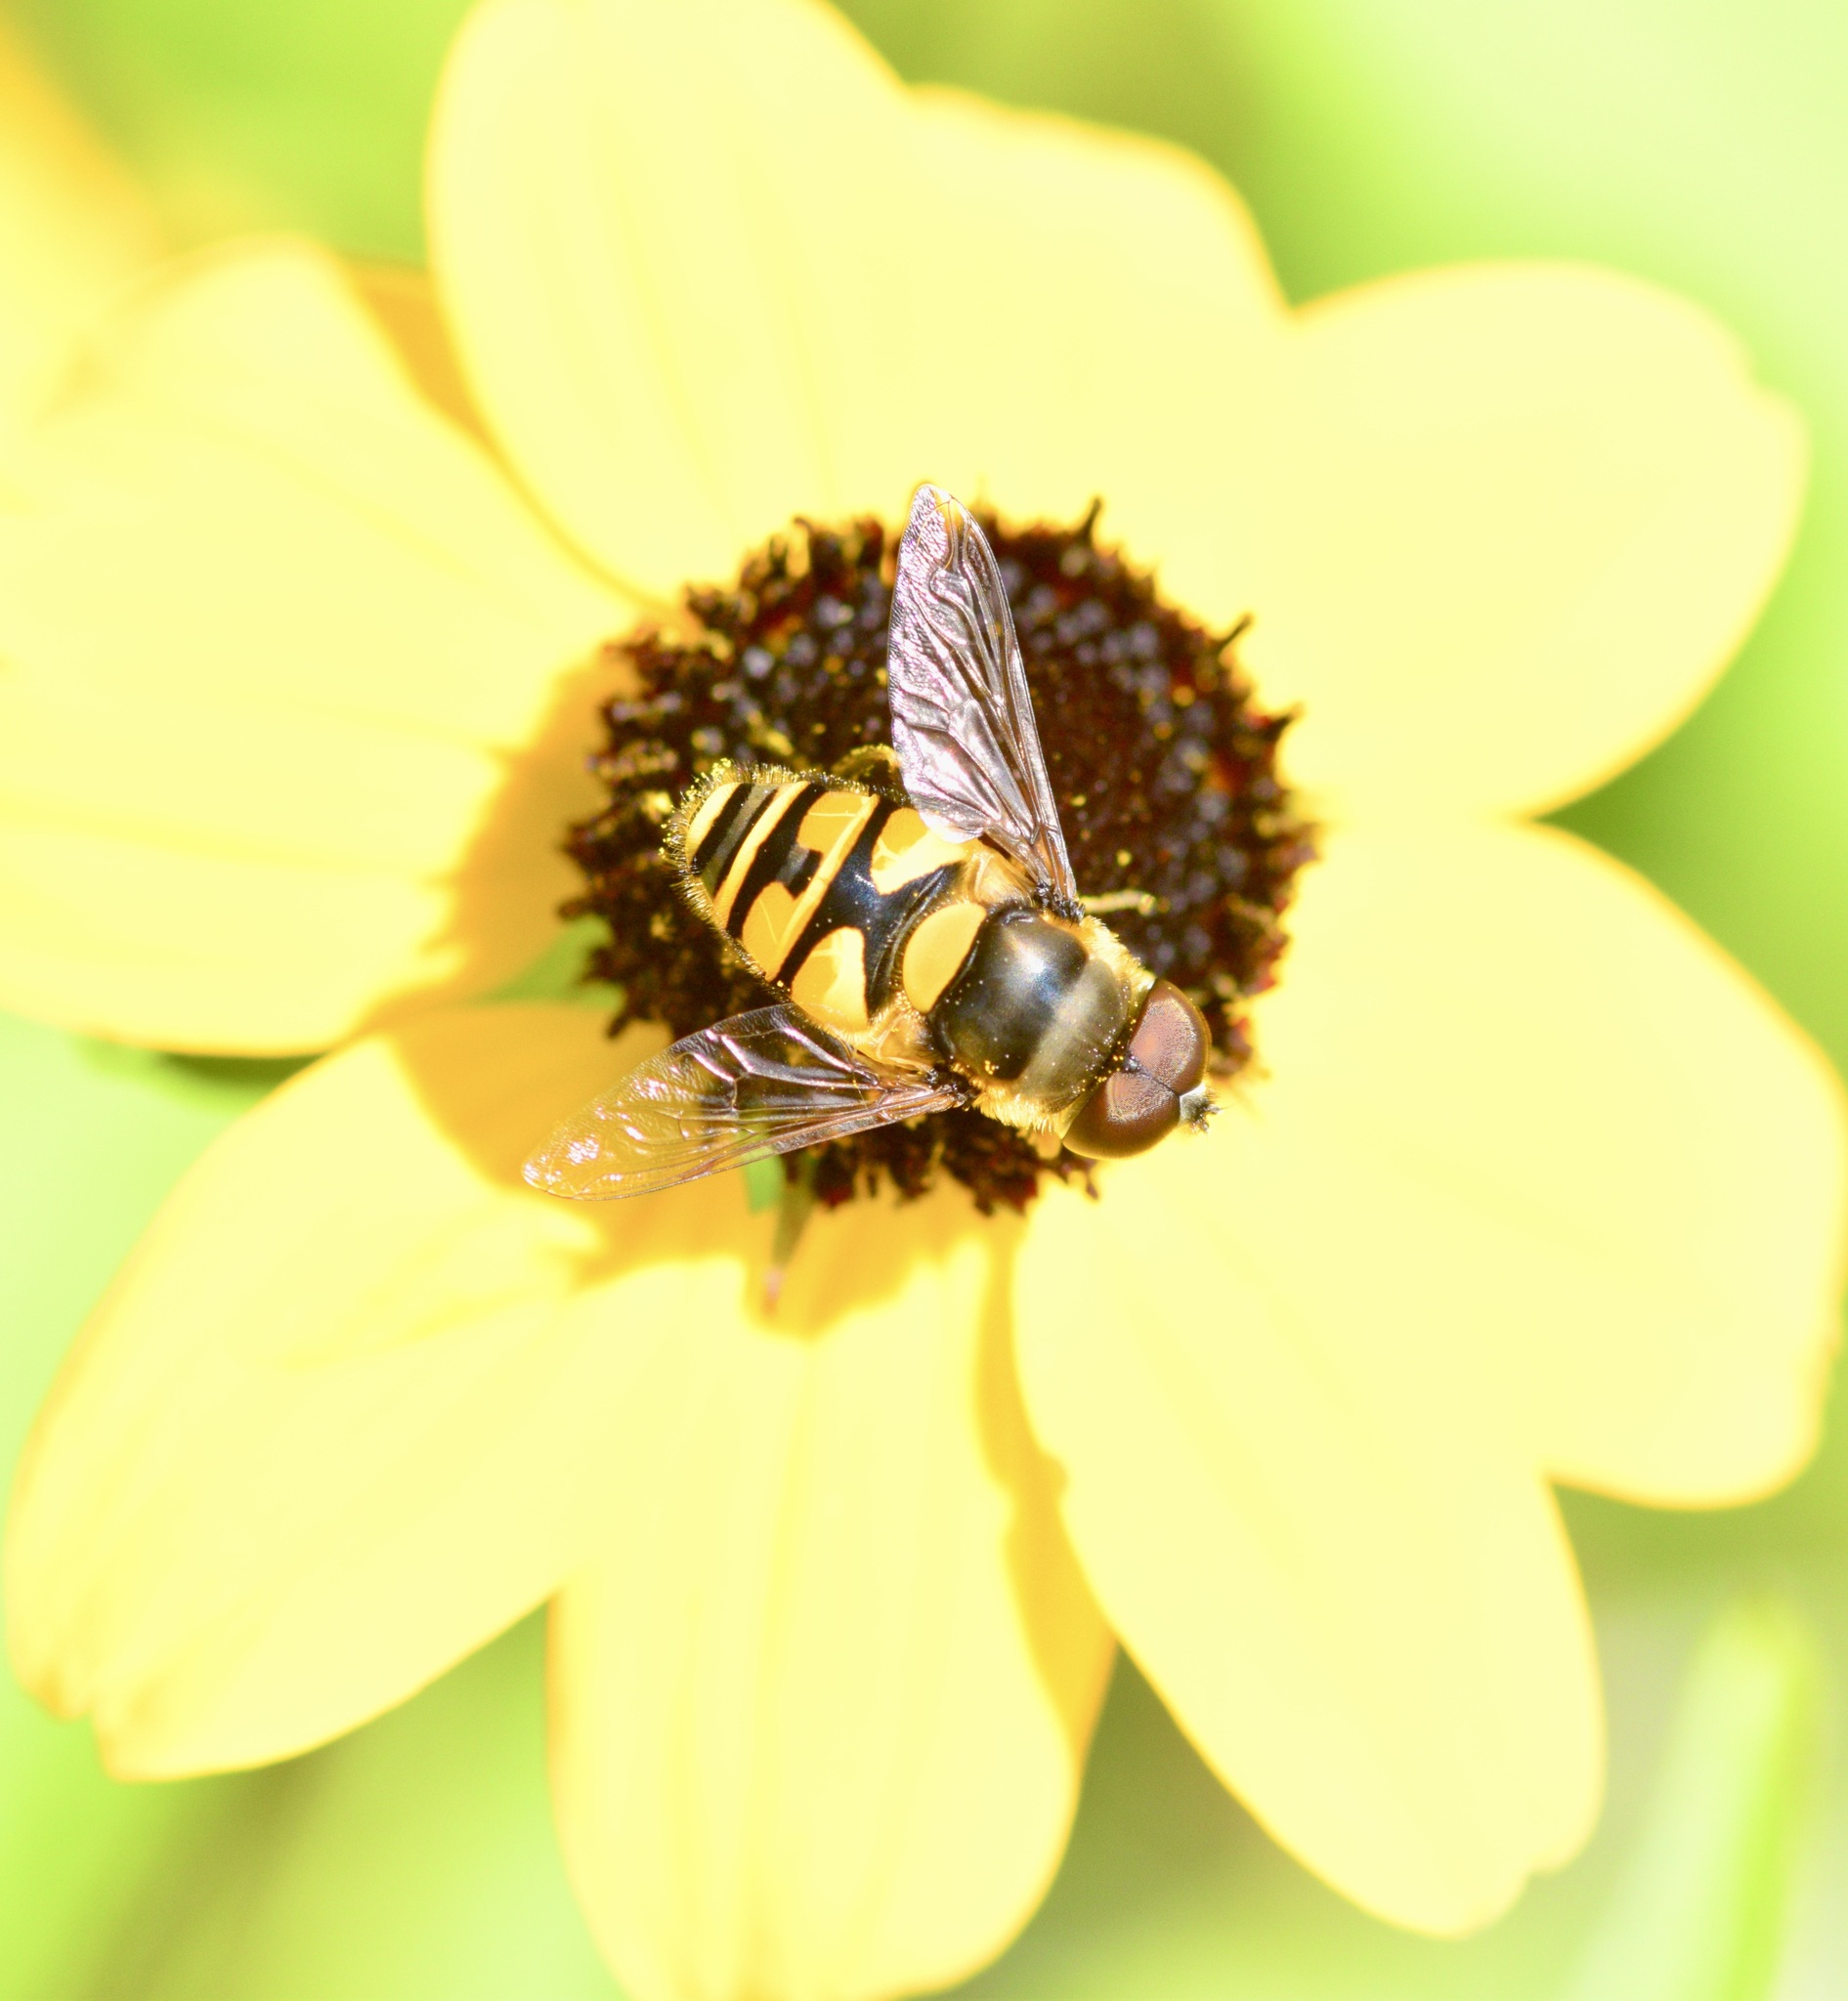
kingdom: Animalia
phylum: Arthropoda
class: Insecta
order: Diptera
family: Syrphidae
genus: Eristalis
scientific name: Eristalis transversa
